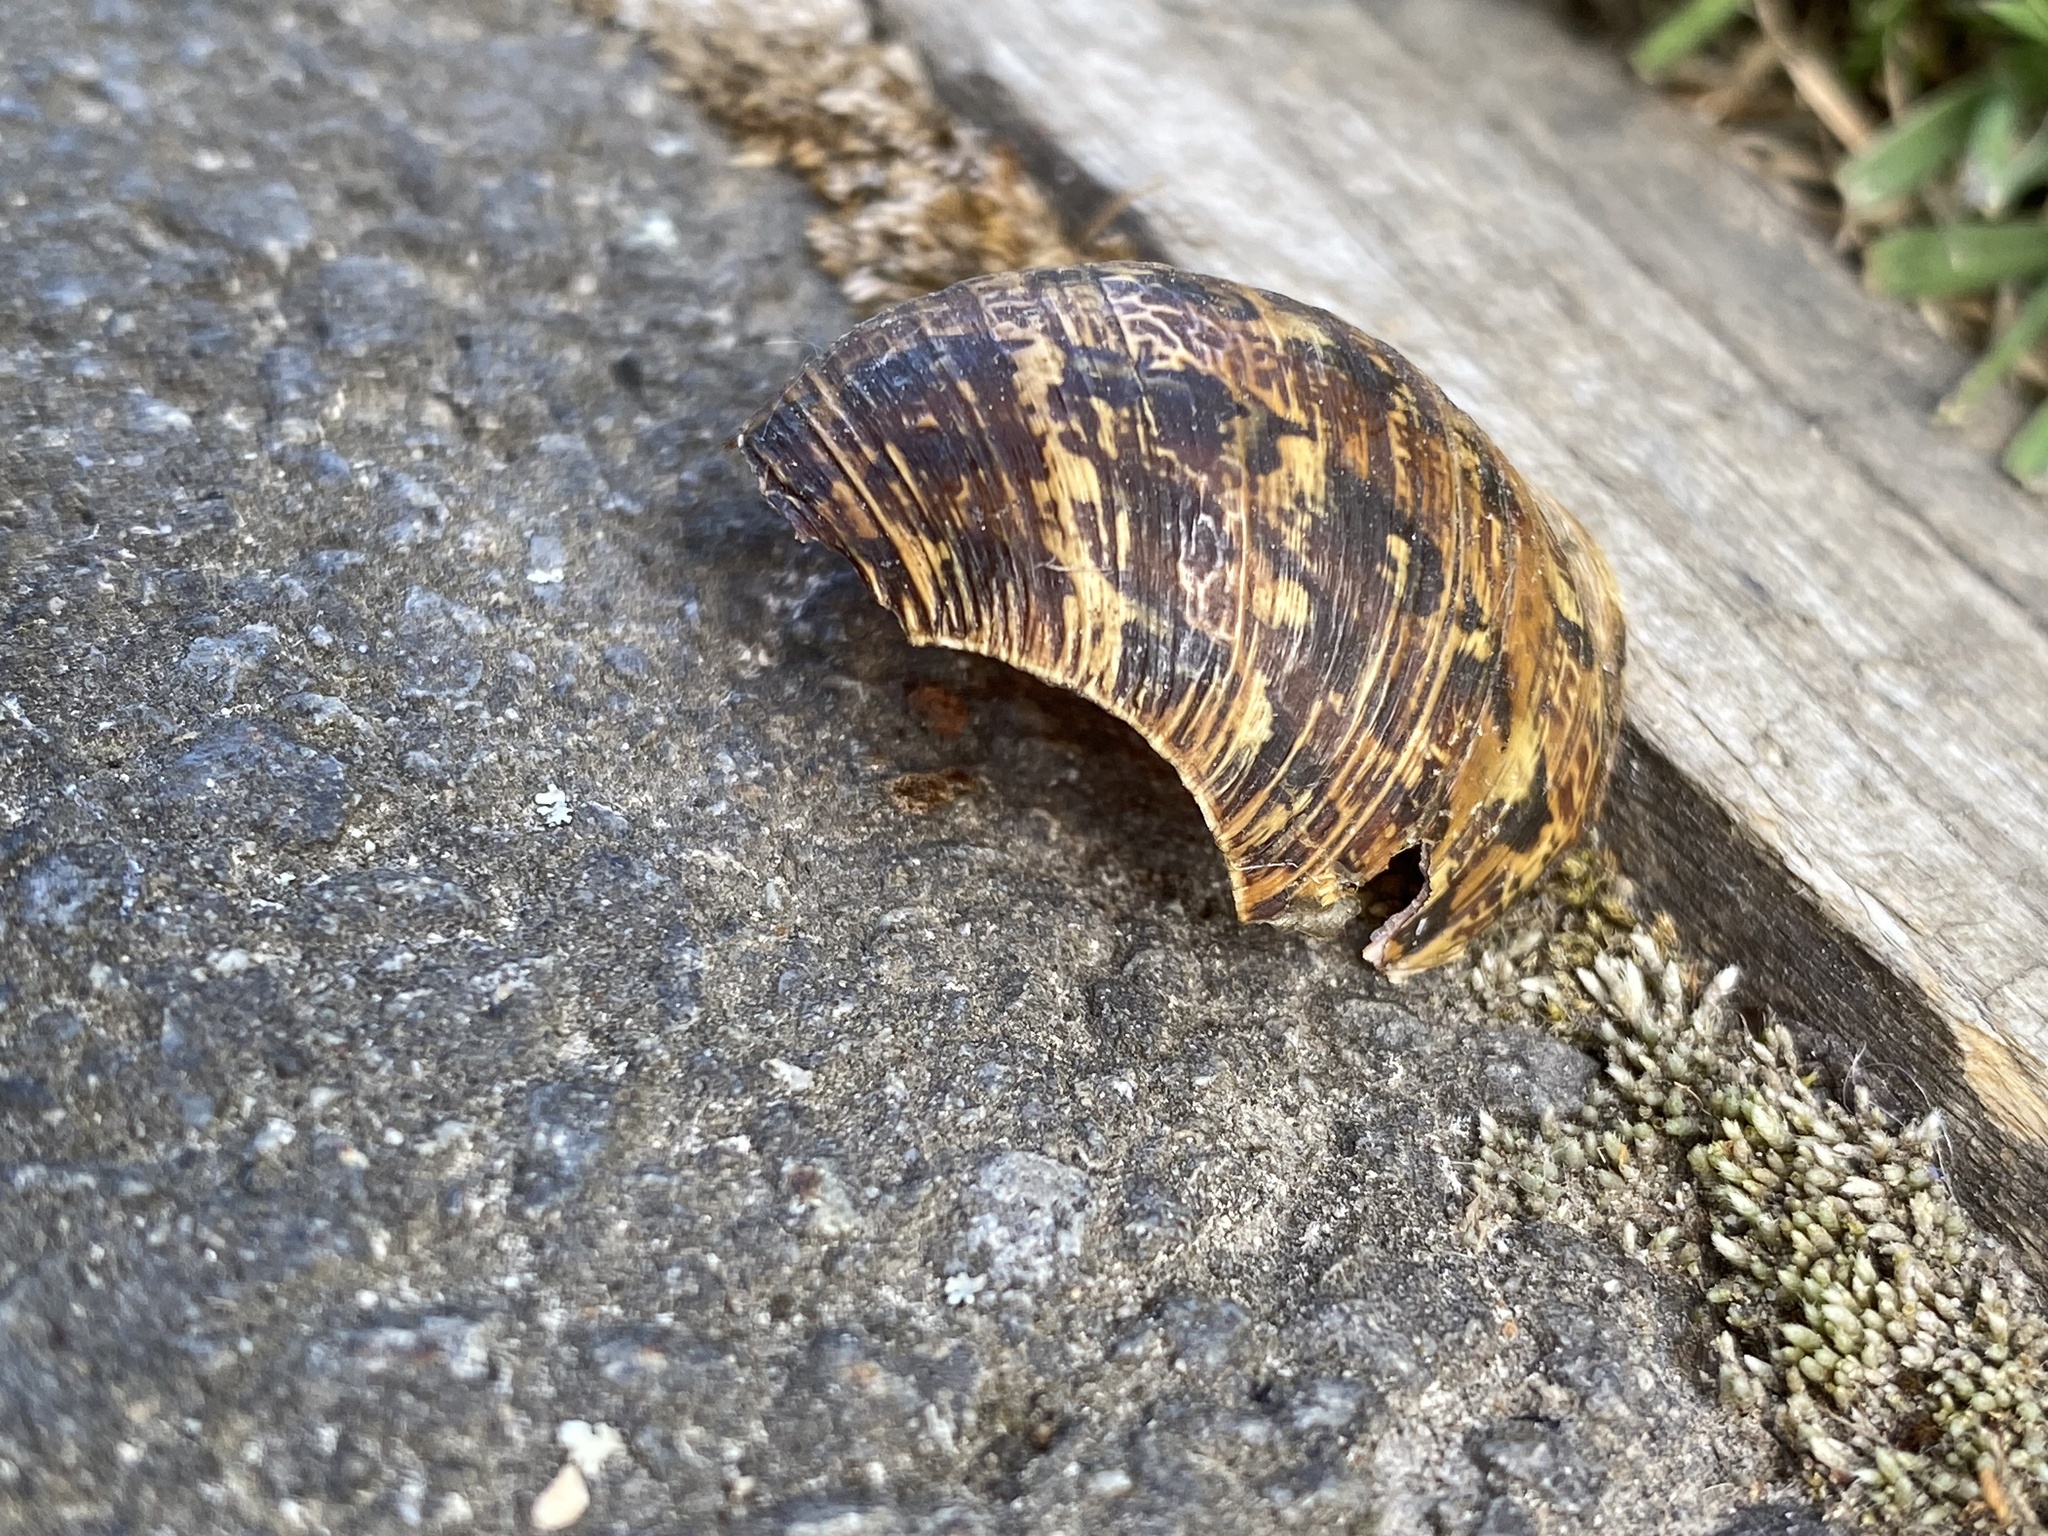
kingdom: Animalia
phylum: Mollusca
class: Gastropoda
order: Stylommatophora
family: Helicidae
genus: Cornu
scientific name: Cornu aspersum
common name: Brown garden snail
